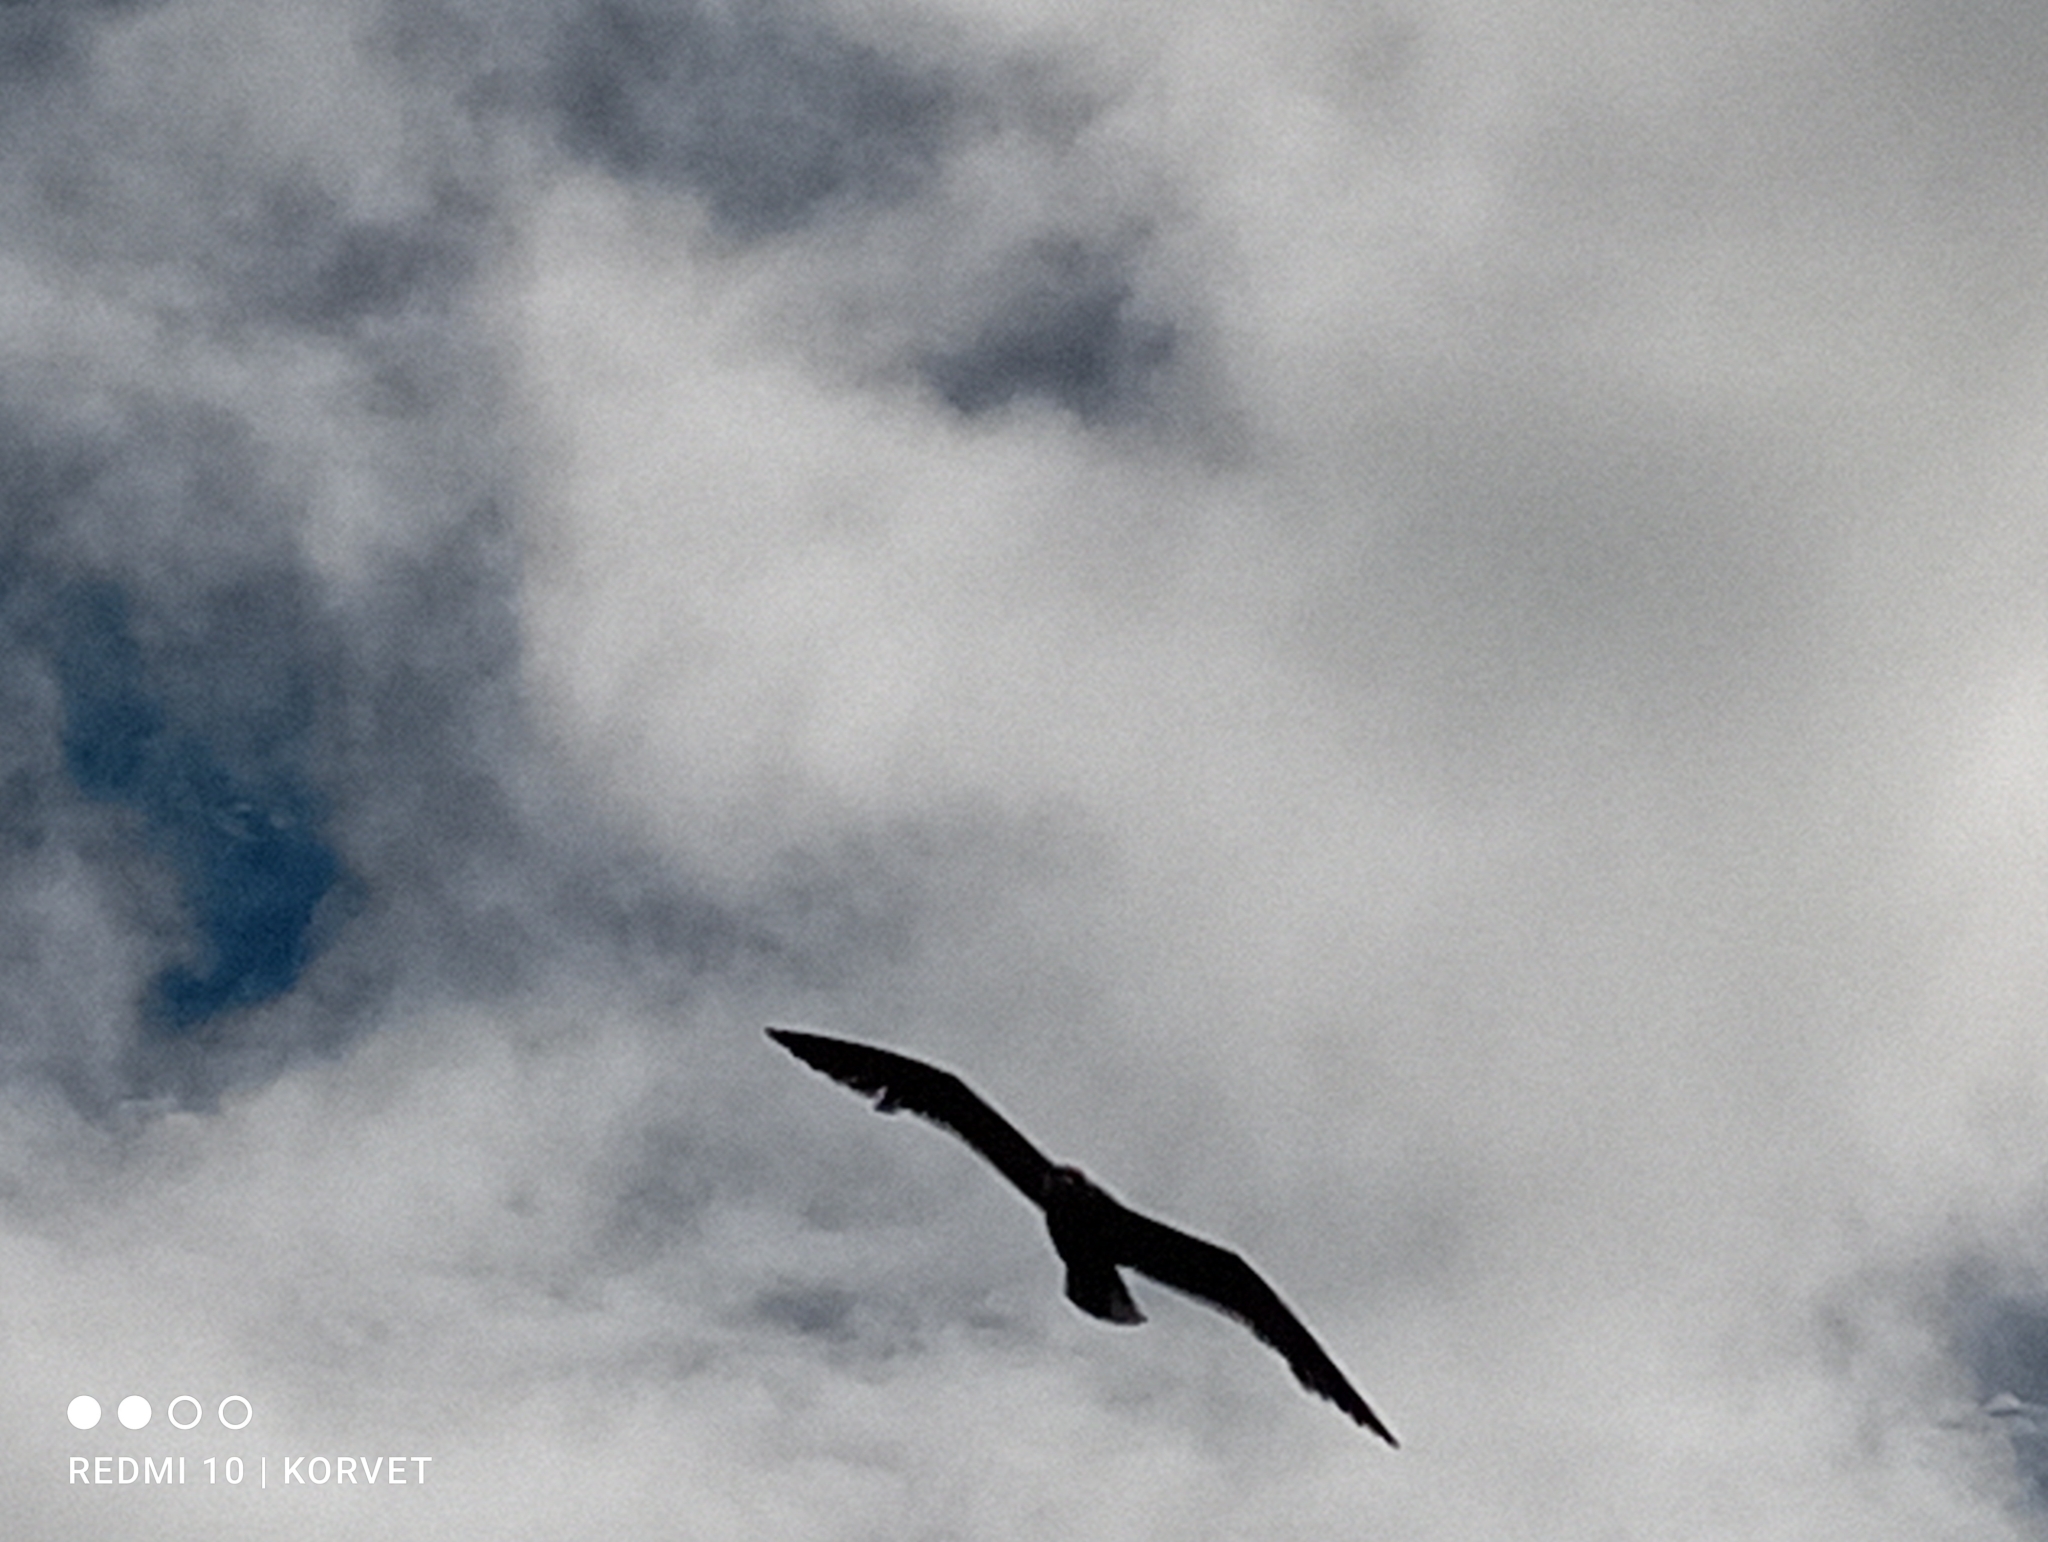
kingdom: Animalia
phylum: Chordata
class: Aves
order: Charadriiformes
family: Laridae
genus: Larus
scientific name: Larus argentatus
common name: Herring gull
